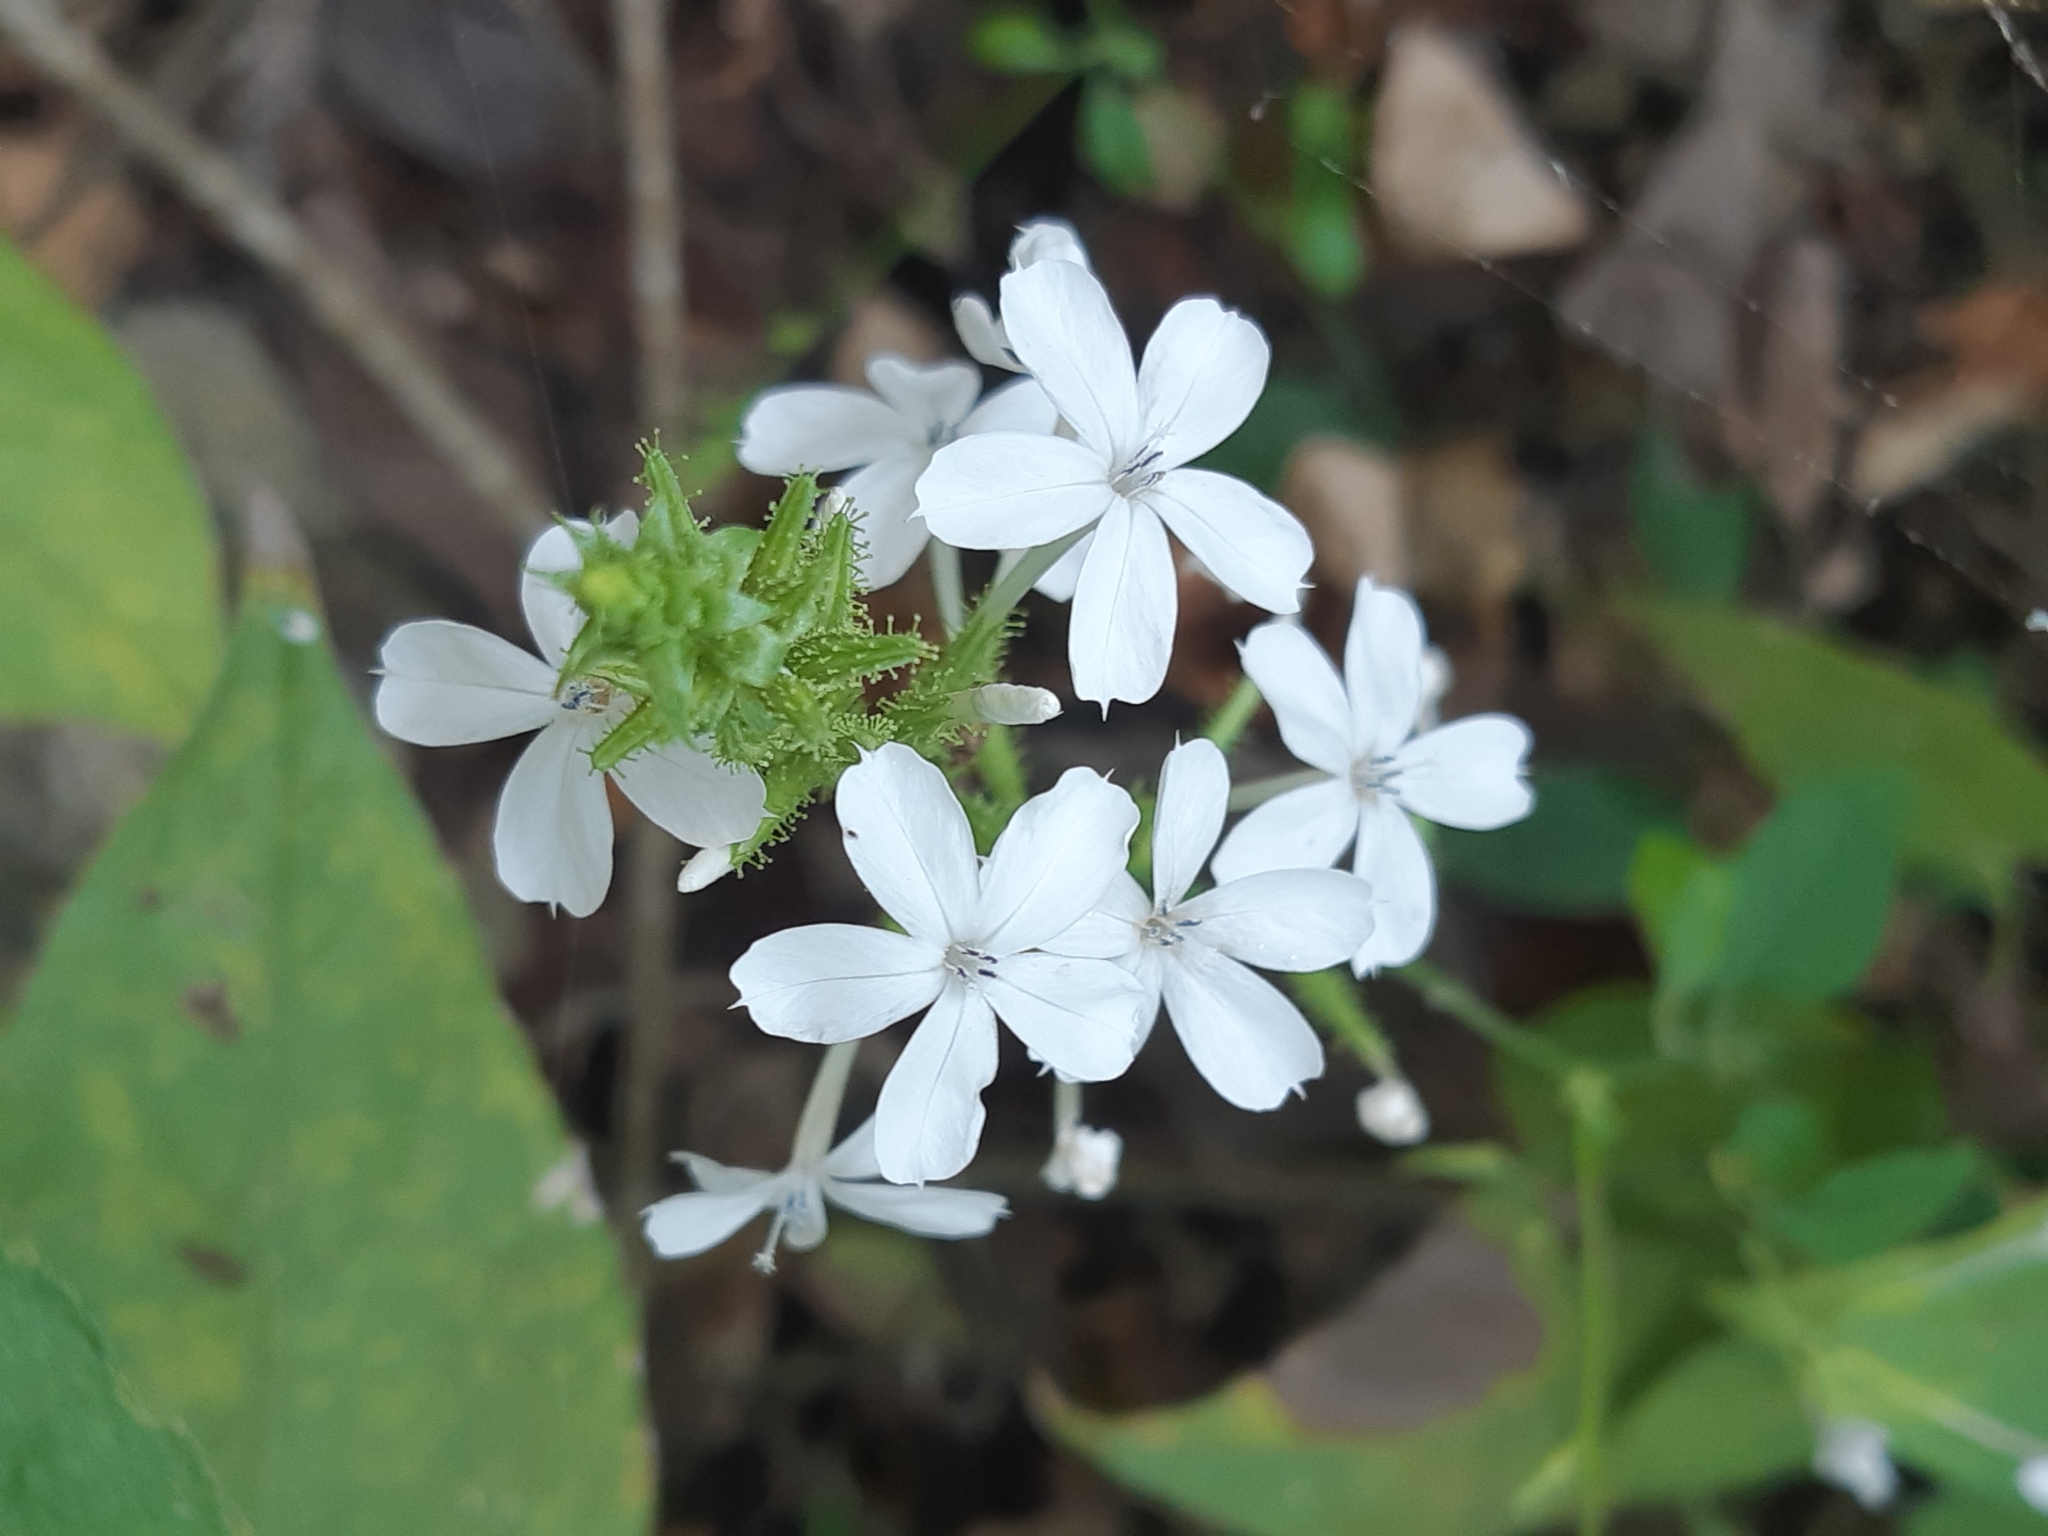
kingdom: Plantae
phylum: Tracheophyta
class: Magnoliopsida
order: Caryophyllales
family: Plumbaginaceae
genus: Plumbago
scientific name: Plumbago zeylanica
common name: Doctorbush
